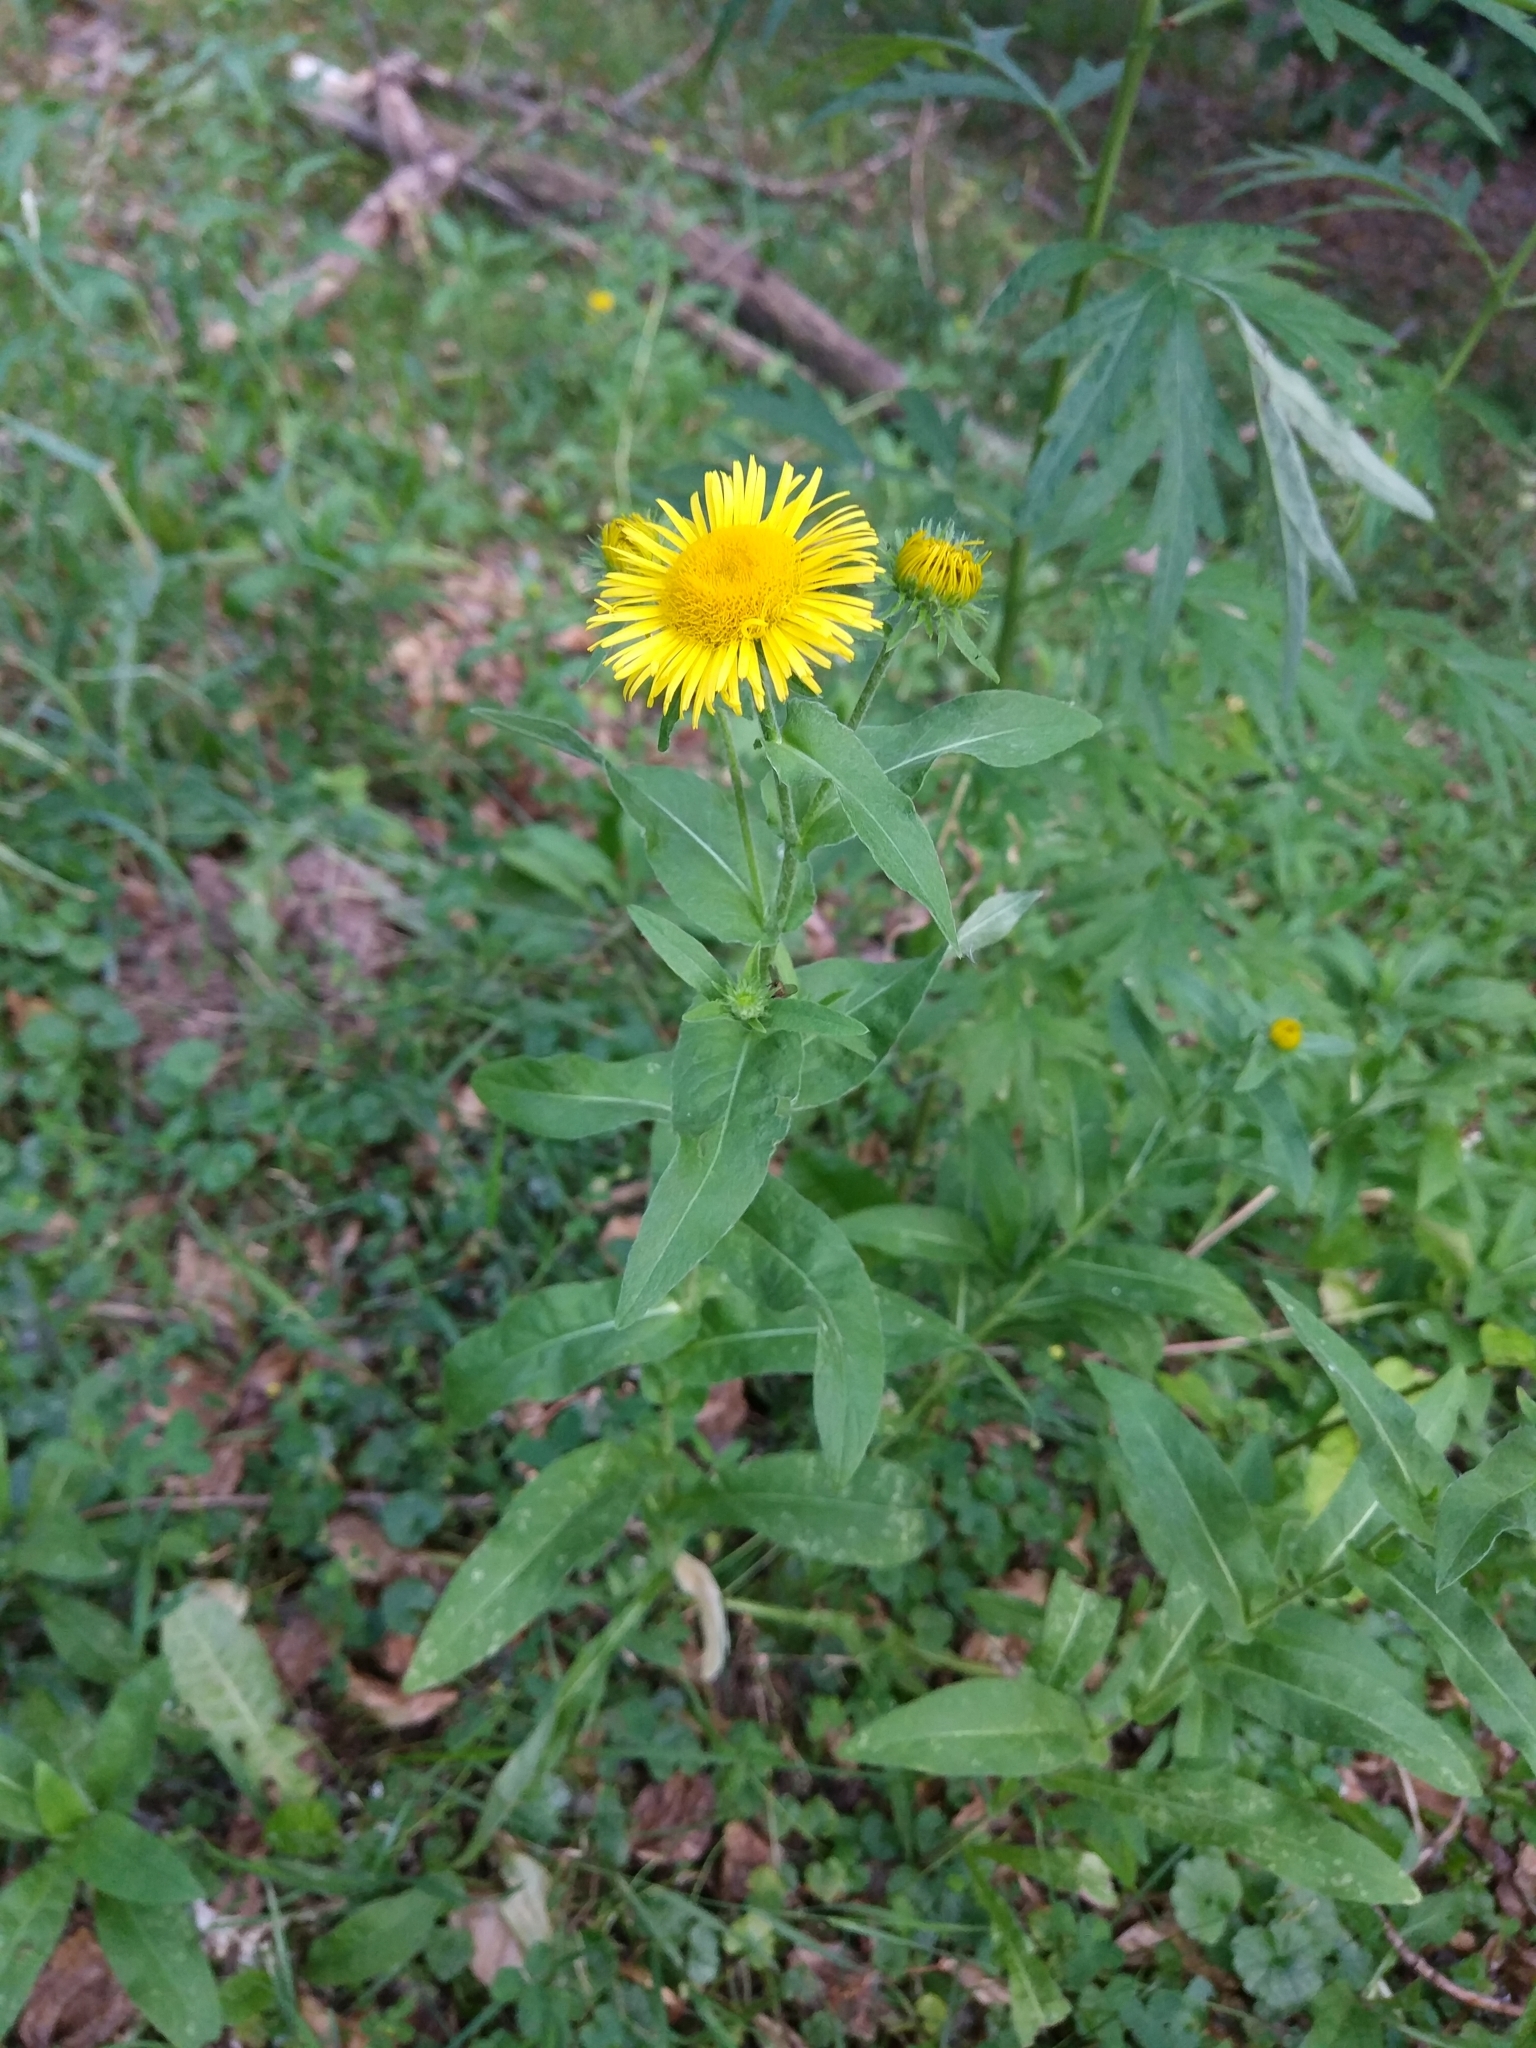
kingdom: Plantae
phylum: Tracheophyta
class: Magnoliopsida
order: Asterales
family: Asteraceae
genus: Pentanema
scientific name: Pentanema britannicum
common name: British elecampane
